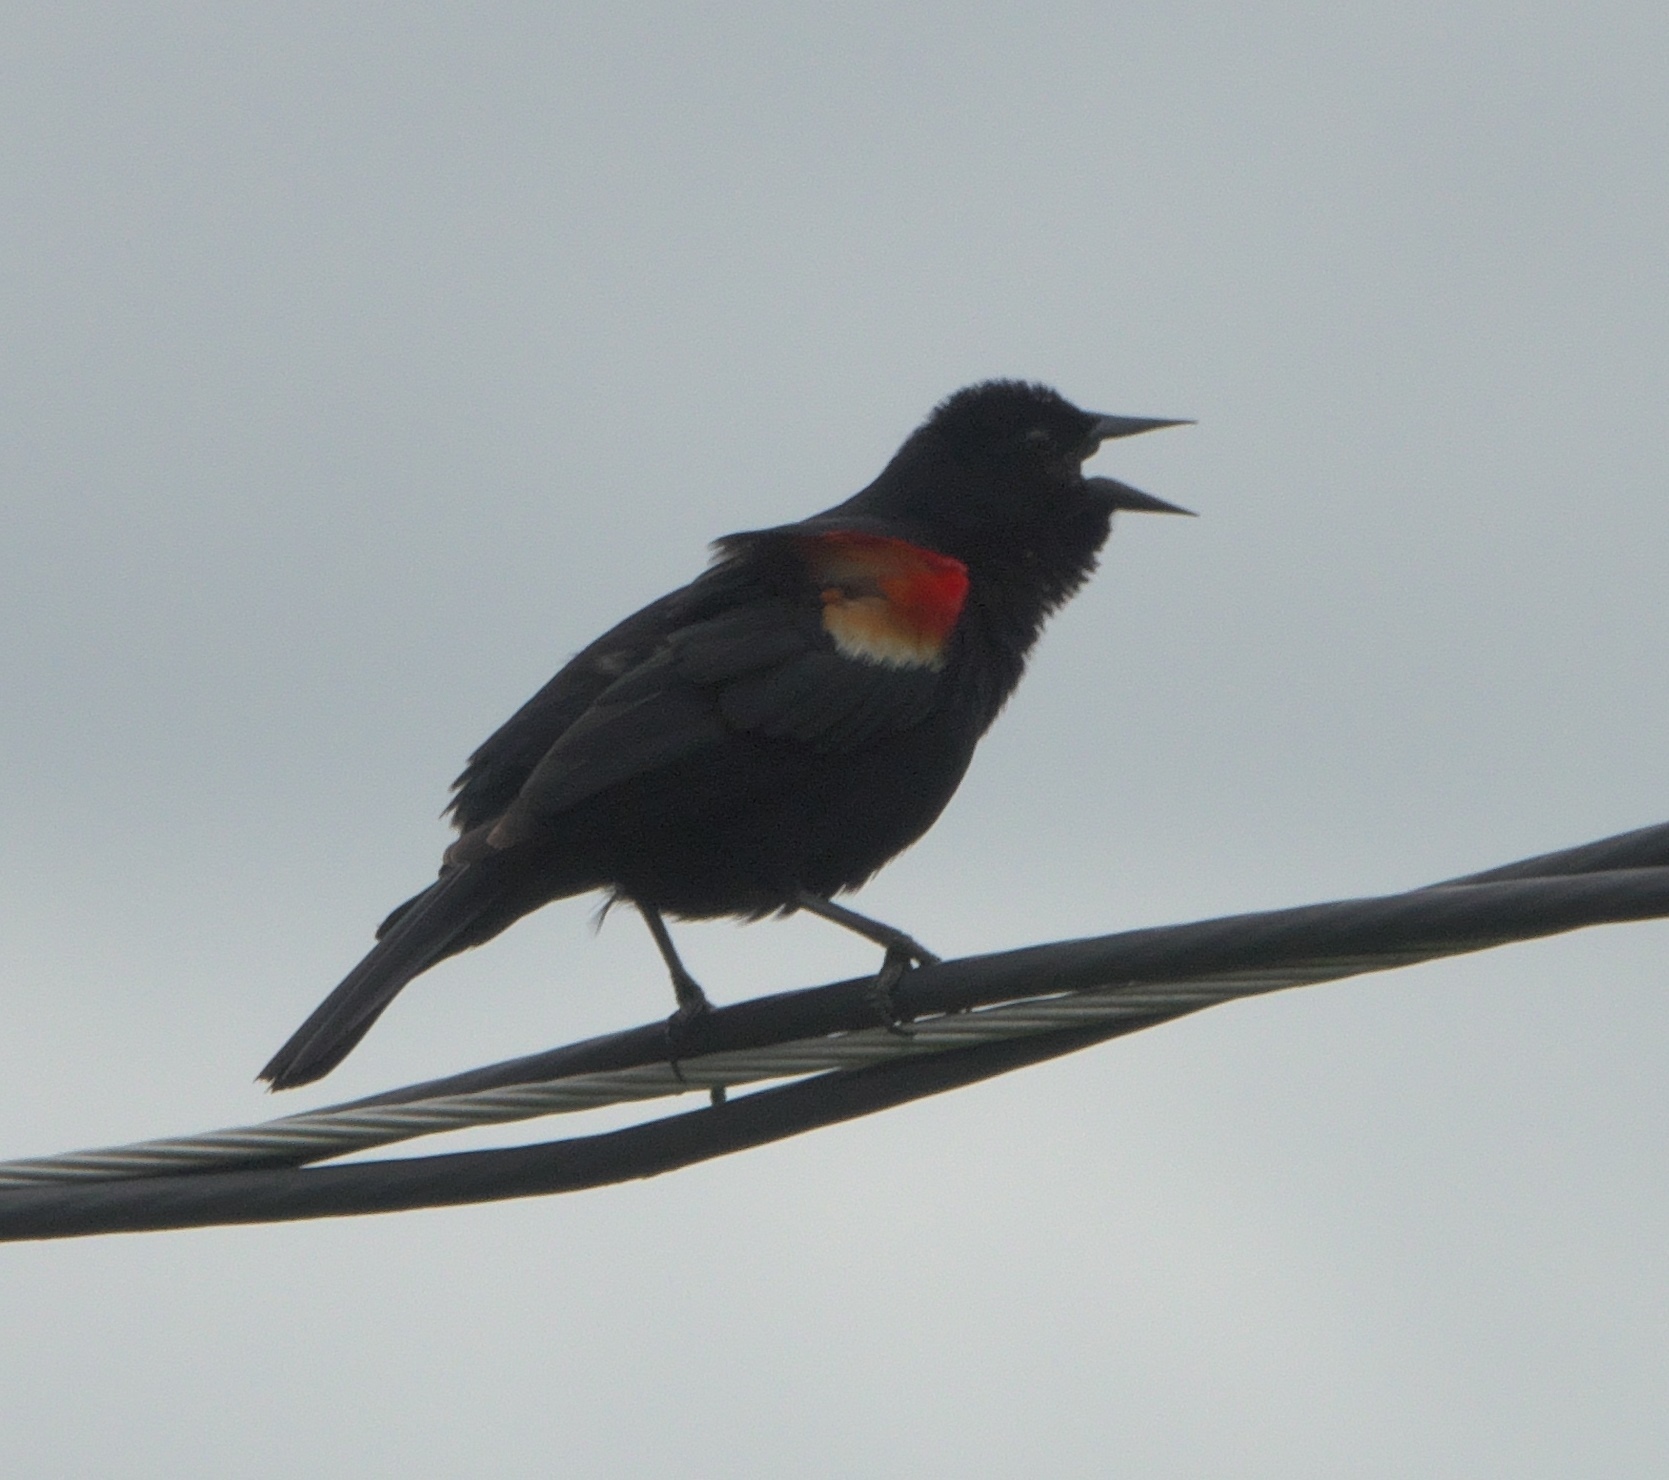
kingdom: Animalia
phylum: Chordata
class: Aves
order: Passeriformes
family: Icteridae
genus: Agelaius
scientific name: Agelaius phoeniceus
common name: Red-winged blackbird
